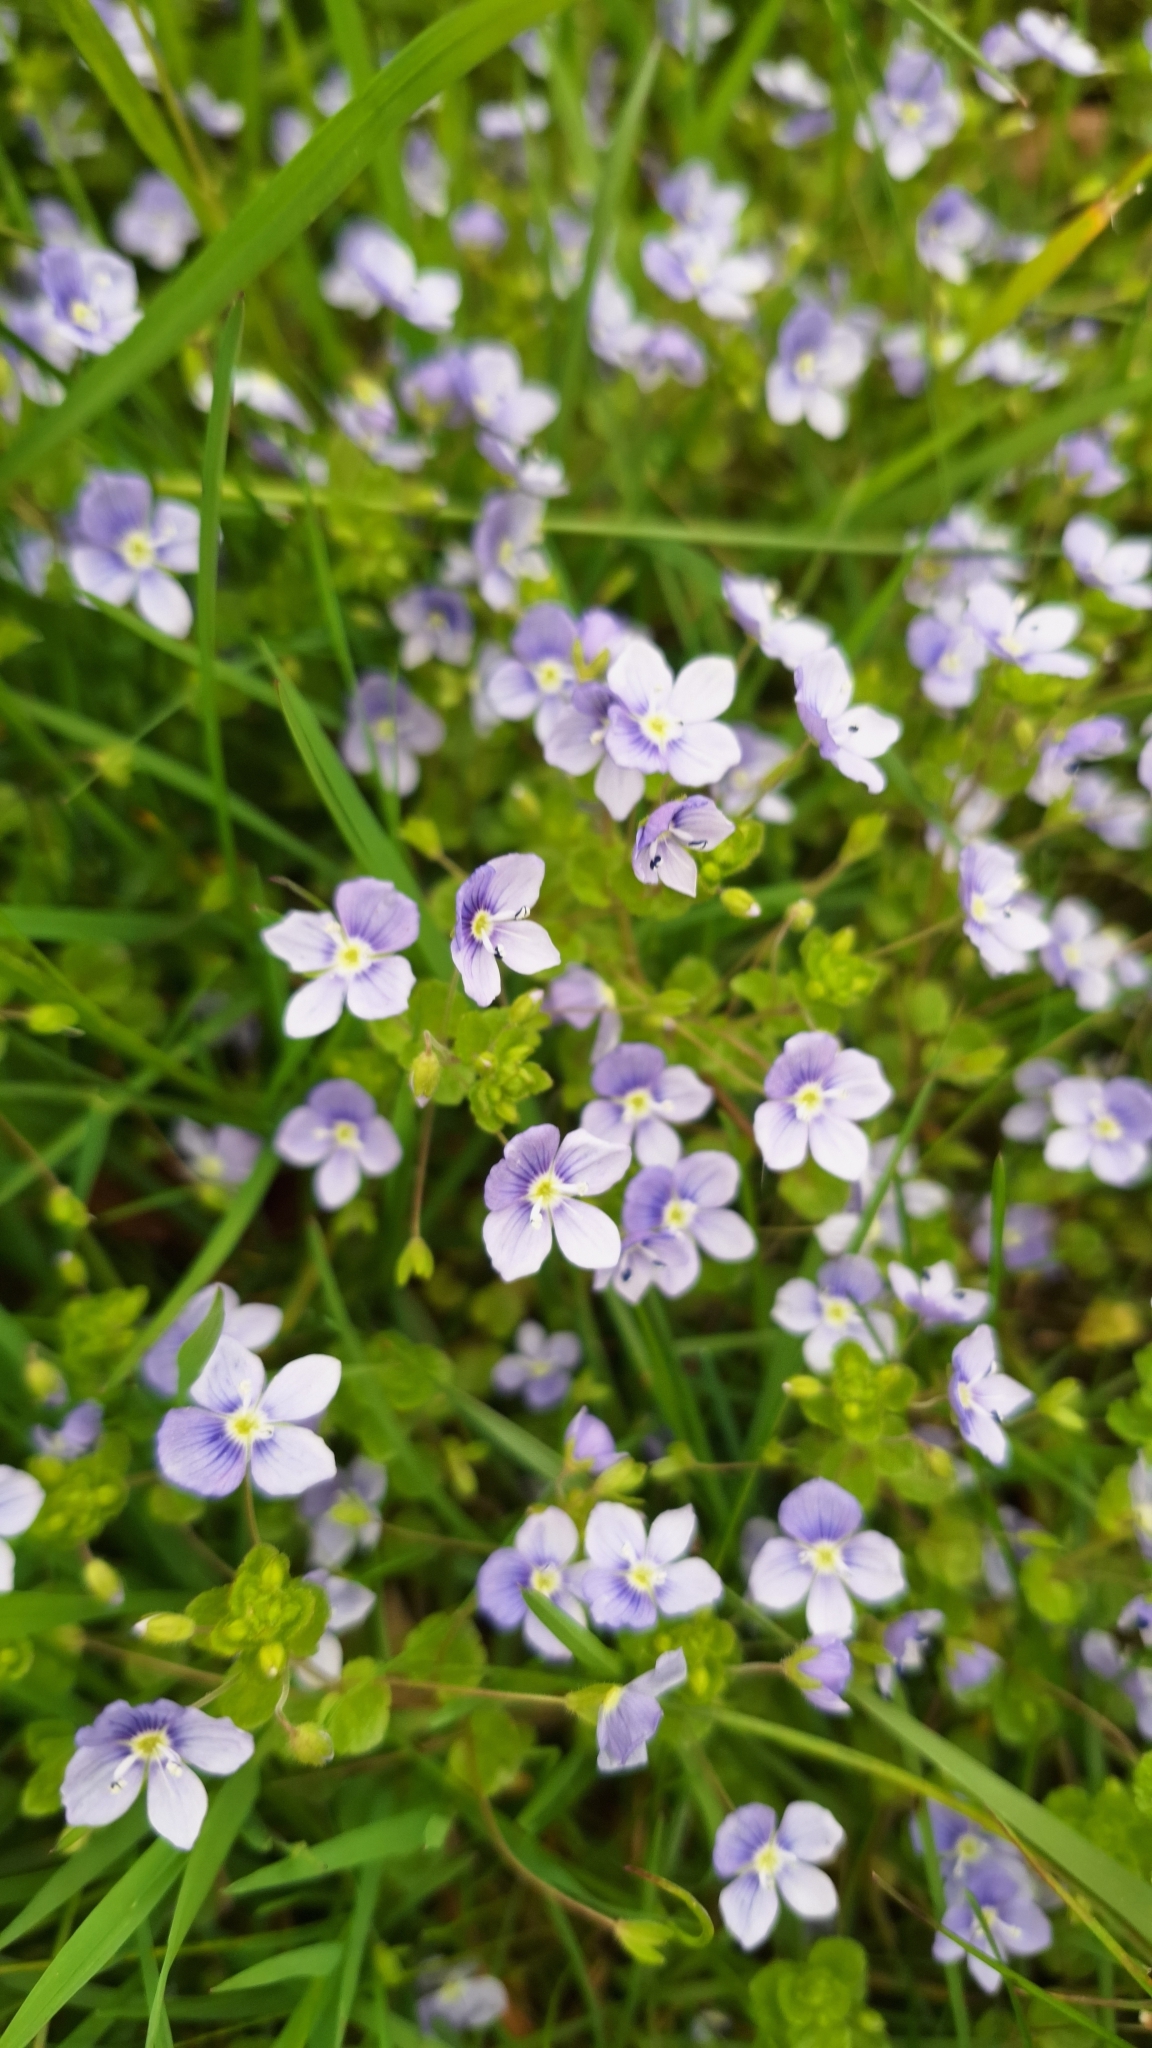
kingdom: Plantae
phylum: Tracheophyta
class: Magnoliopsida
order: Lamiales
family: Plantaginaceae
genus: Veronica
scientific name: Veronica filiformis
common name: Slender speedwell
